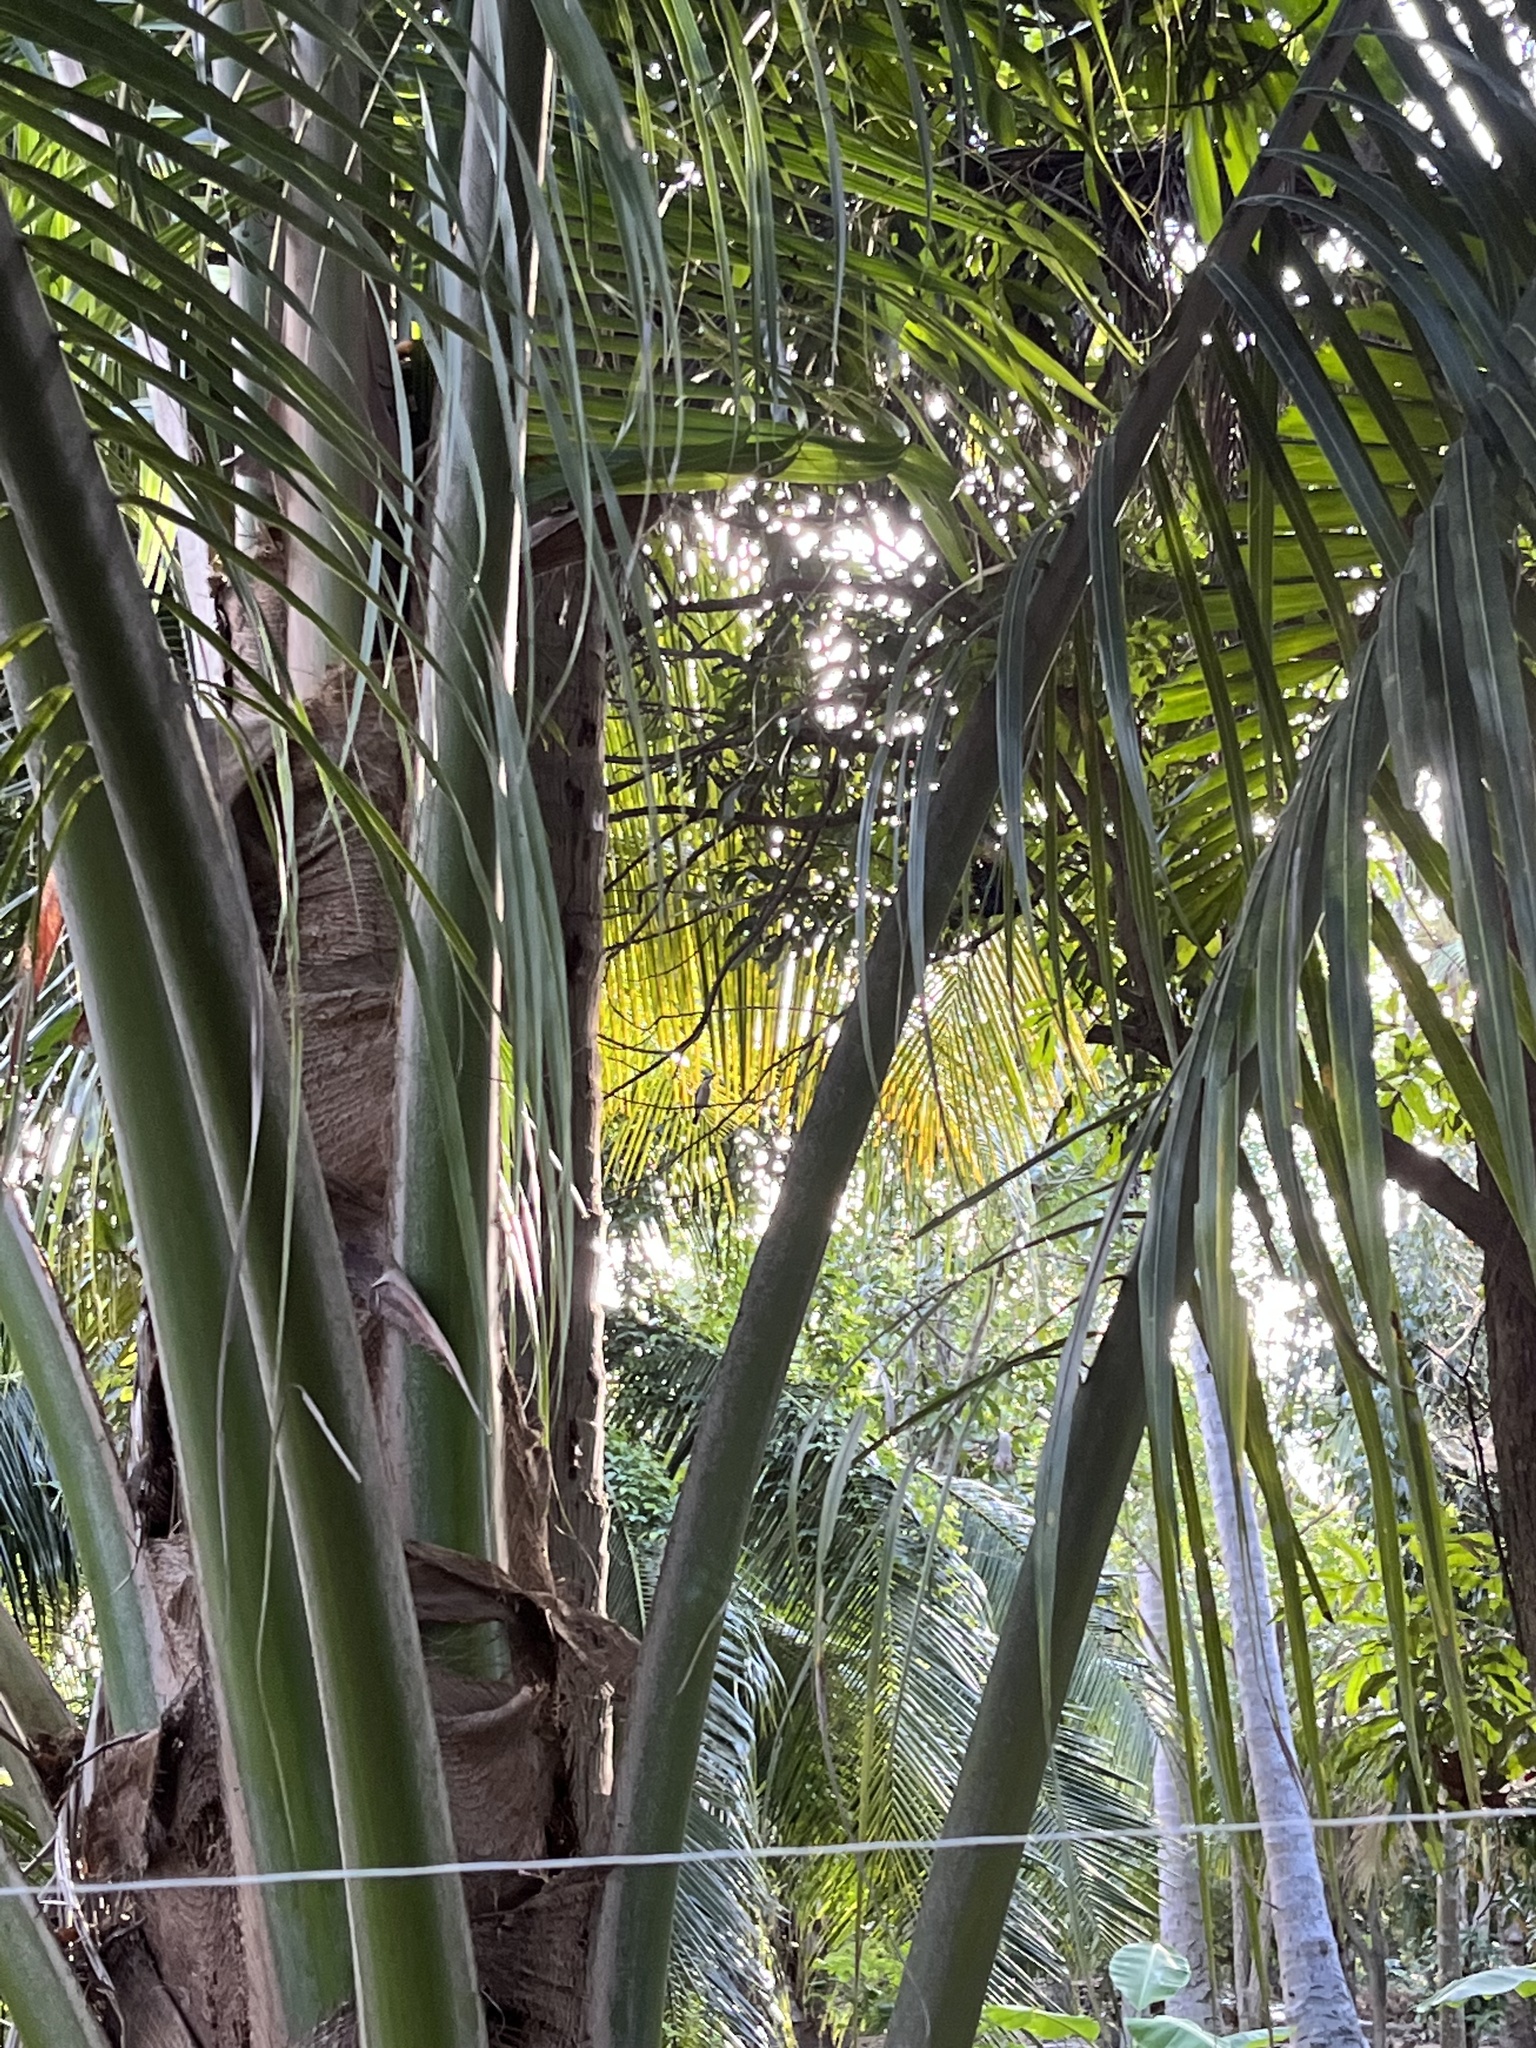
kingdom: Animalia
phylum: Chordata
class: Aves
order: Coraciiformes
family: Alcedinidae
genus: Todiramphus
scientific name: Todiramphus chloris
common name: Collared kingfisher
